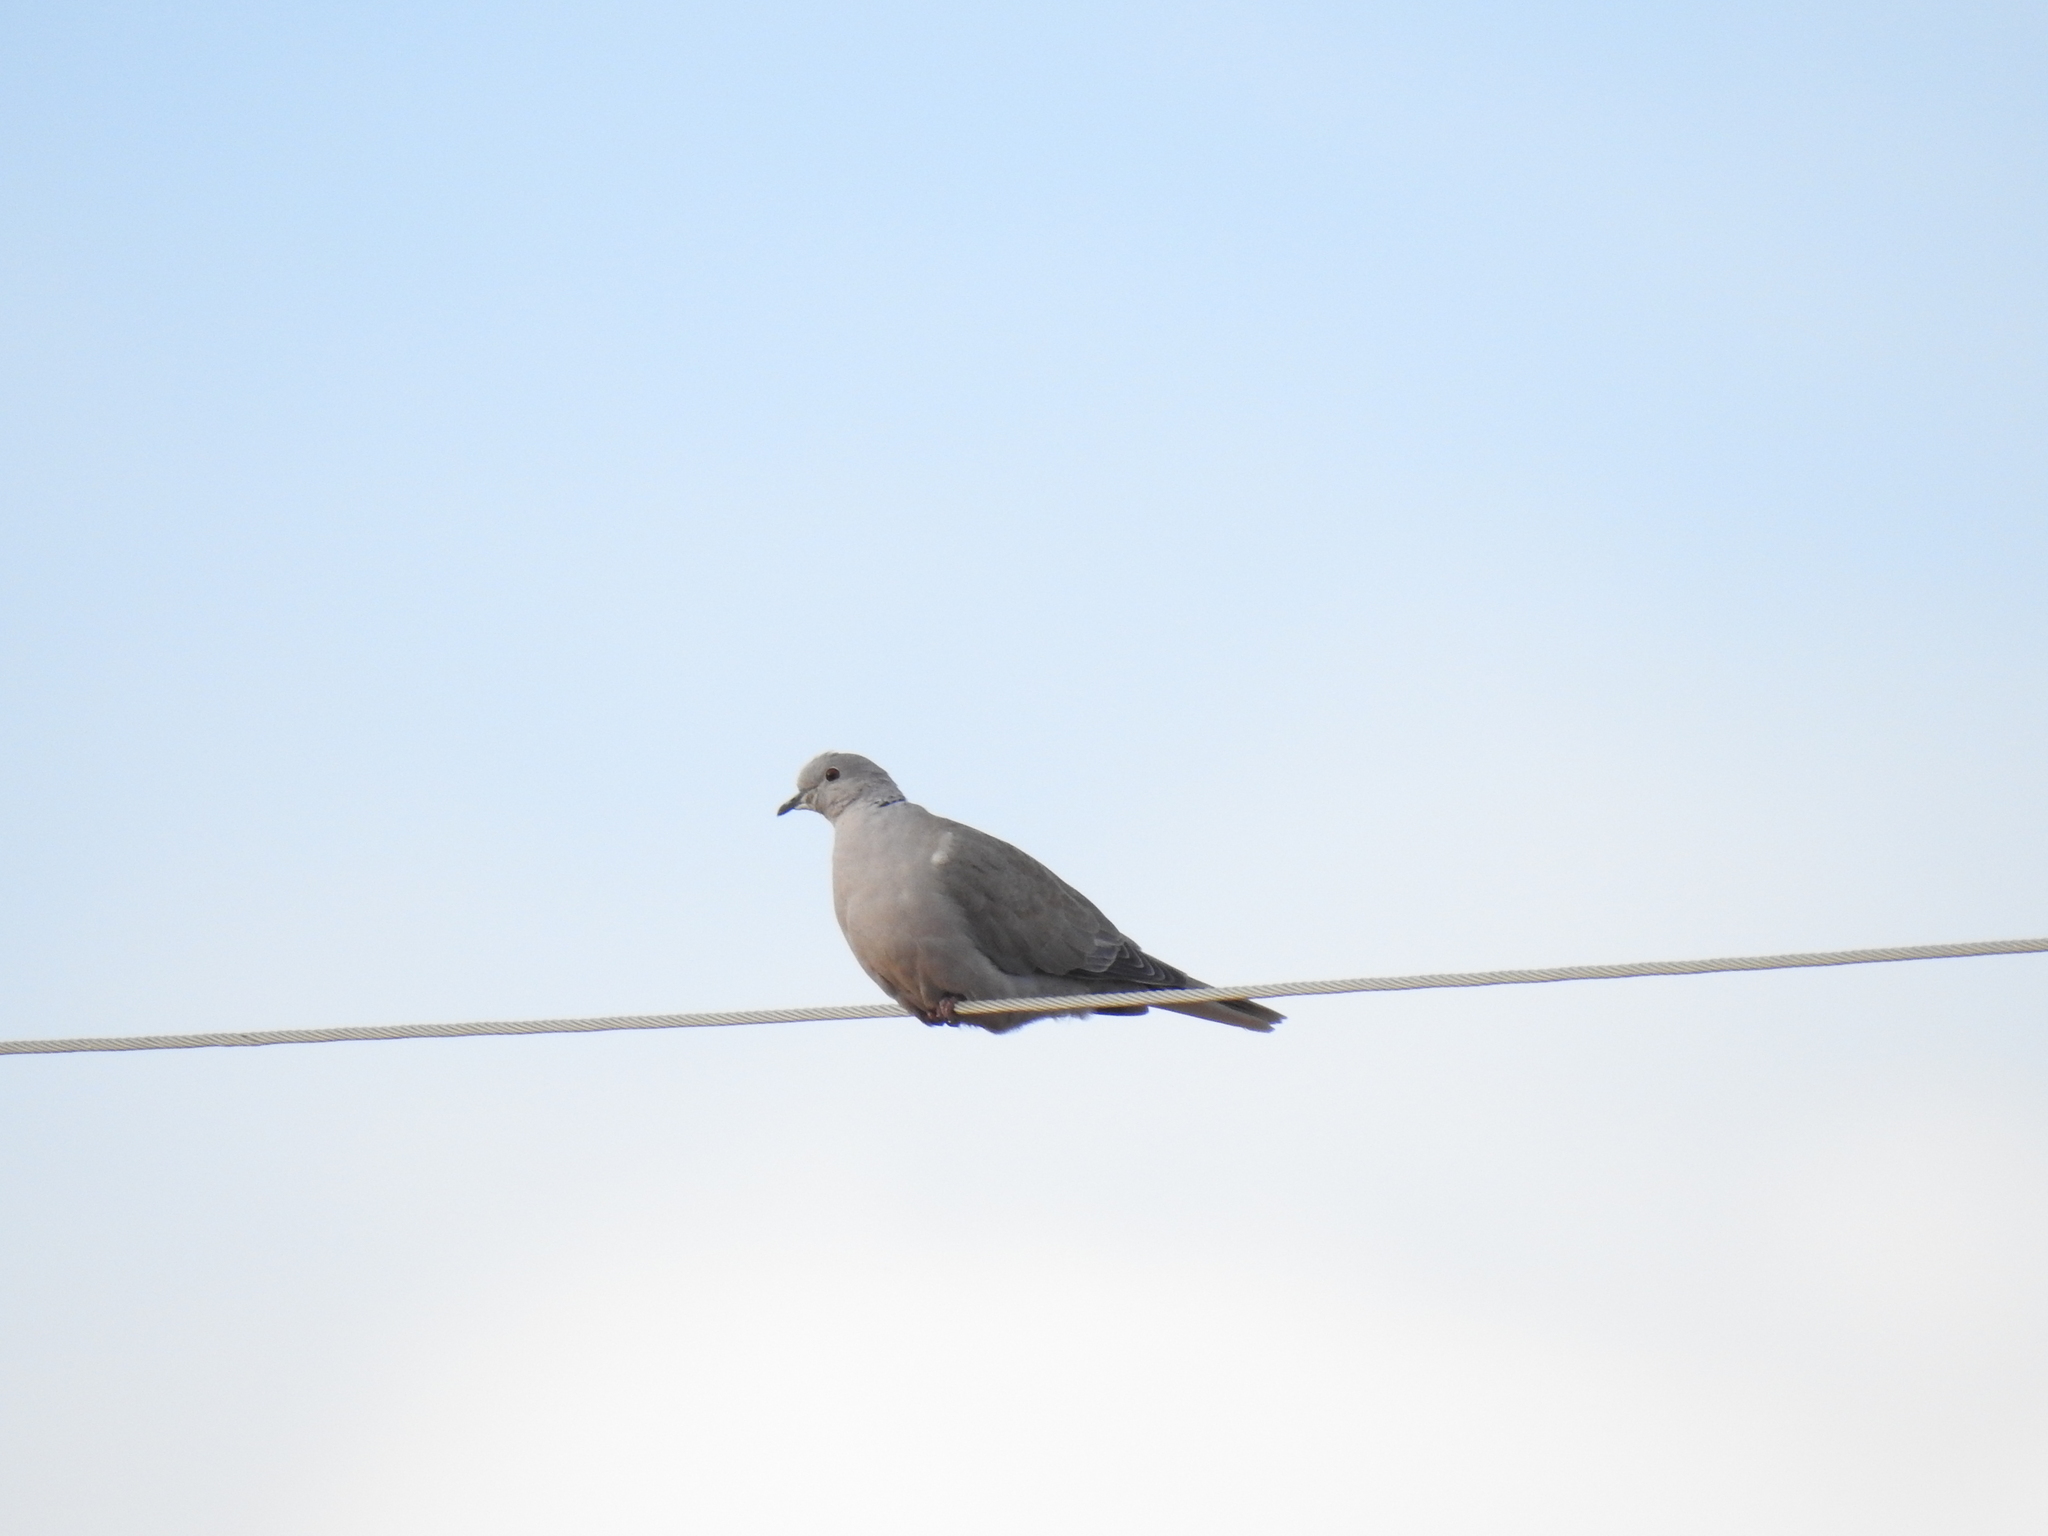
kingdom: Animalia
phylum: Chordata
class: Aves
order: Columbiformes
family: Columbidae
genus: Streptopelia
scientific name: Streptopelia decaocto
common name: Eurasian collared dove
